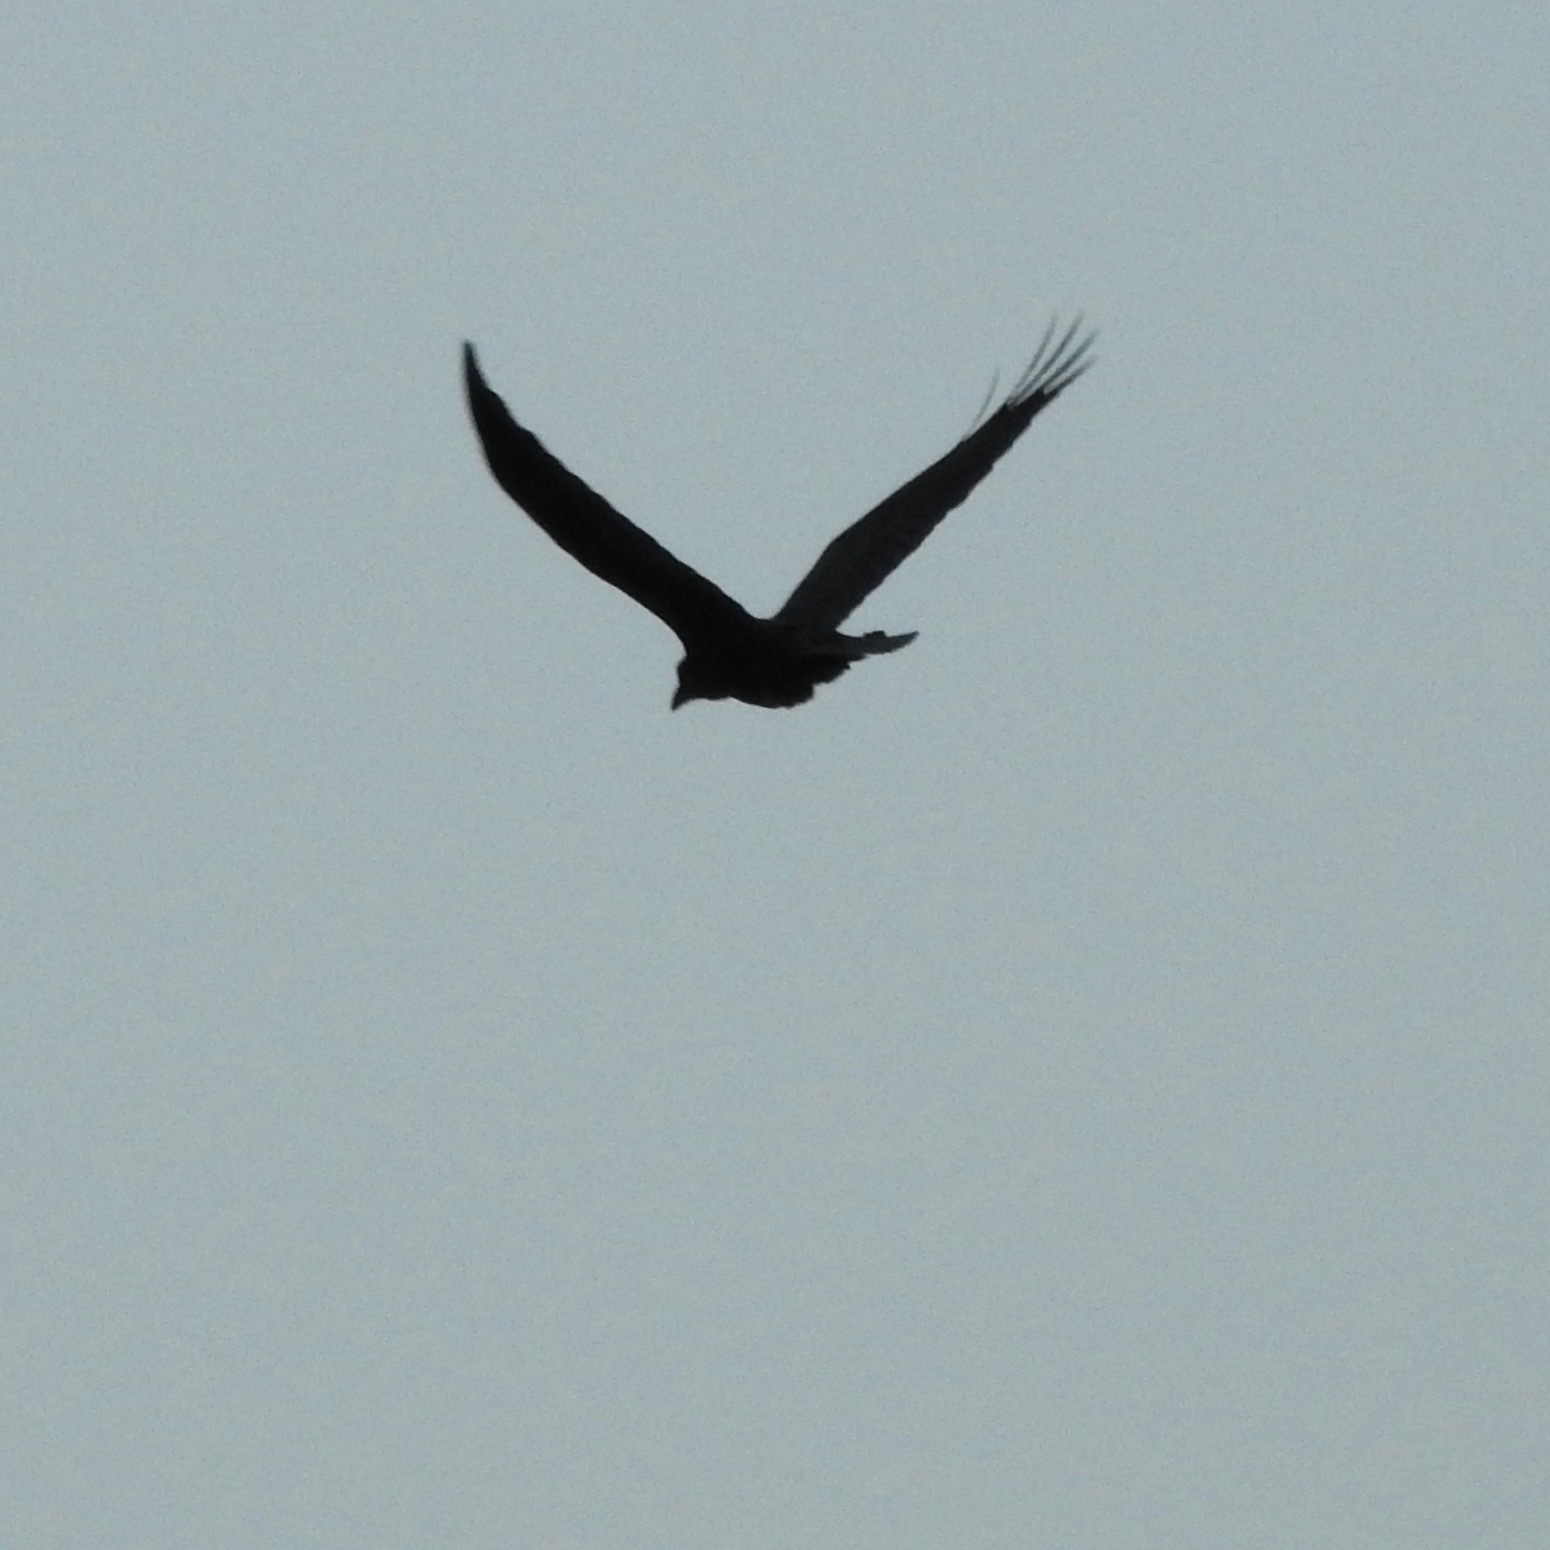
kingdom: Animalia
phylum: Chordata
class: Aves
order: Passeriformes
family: Corvidae
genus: Corvus
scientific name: Corvus corax
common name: Common raven
